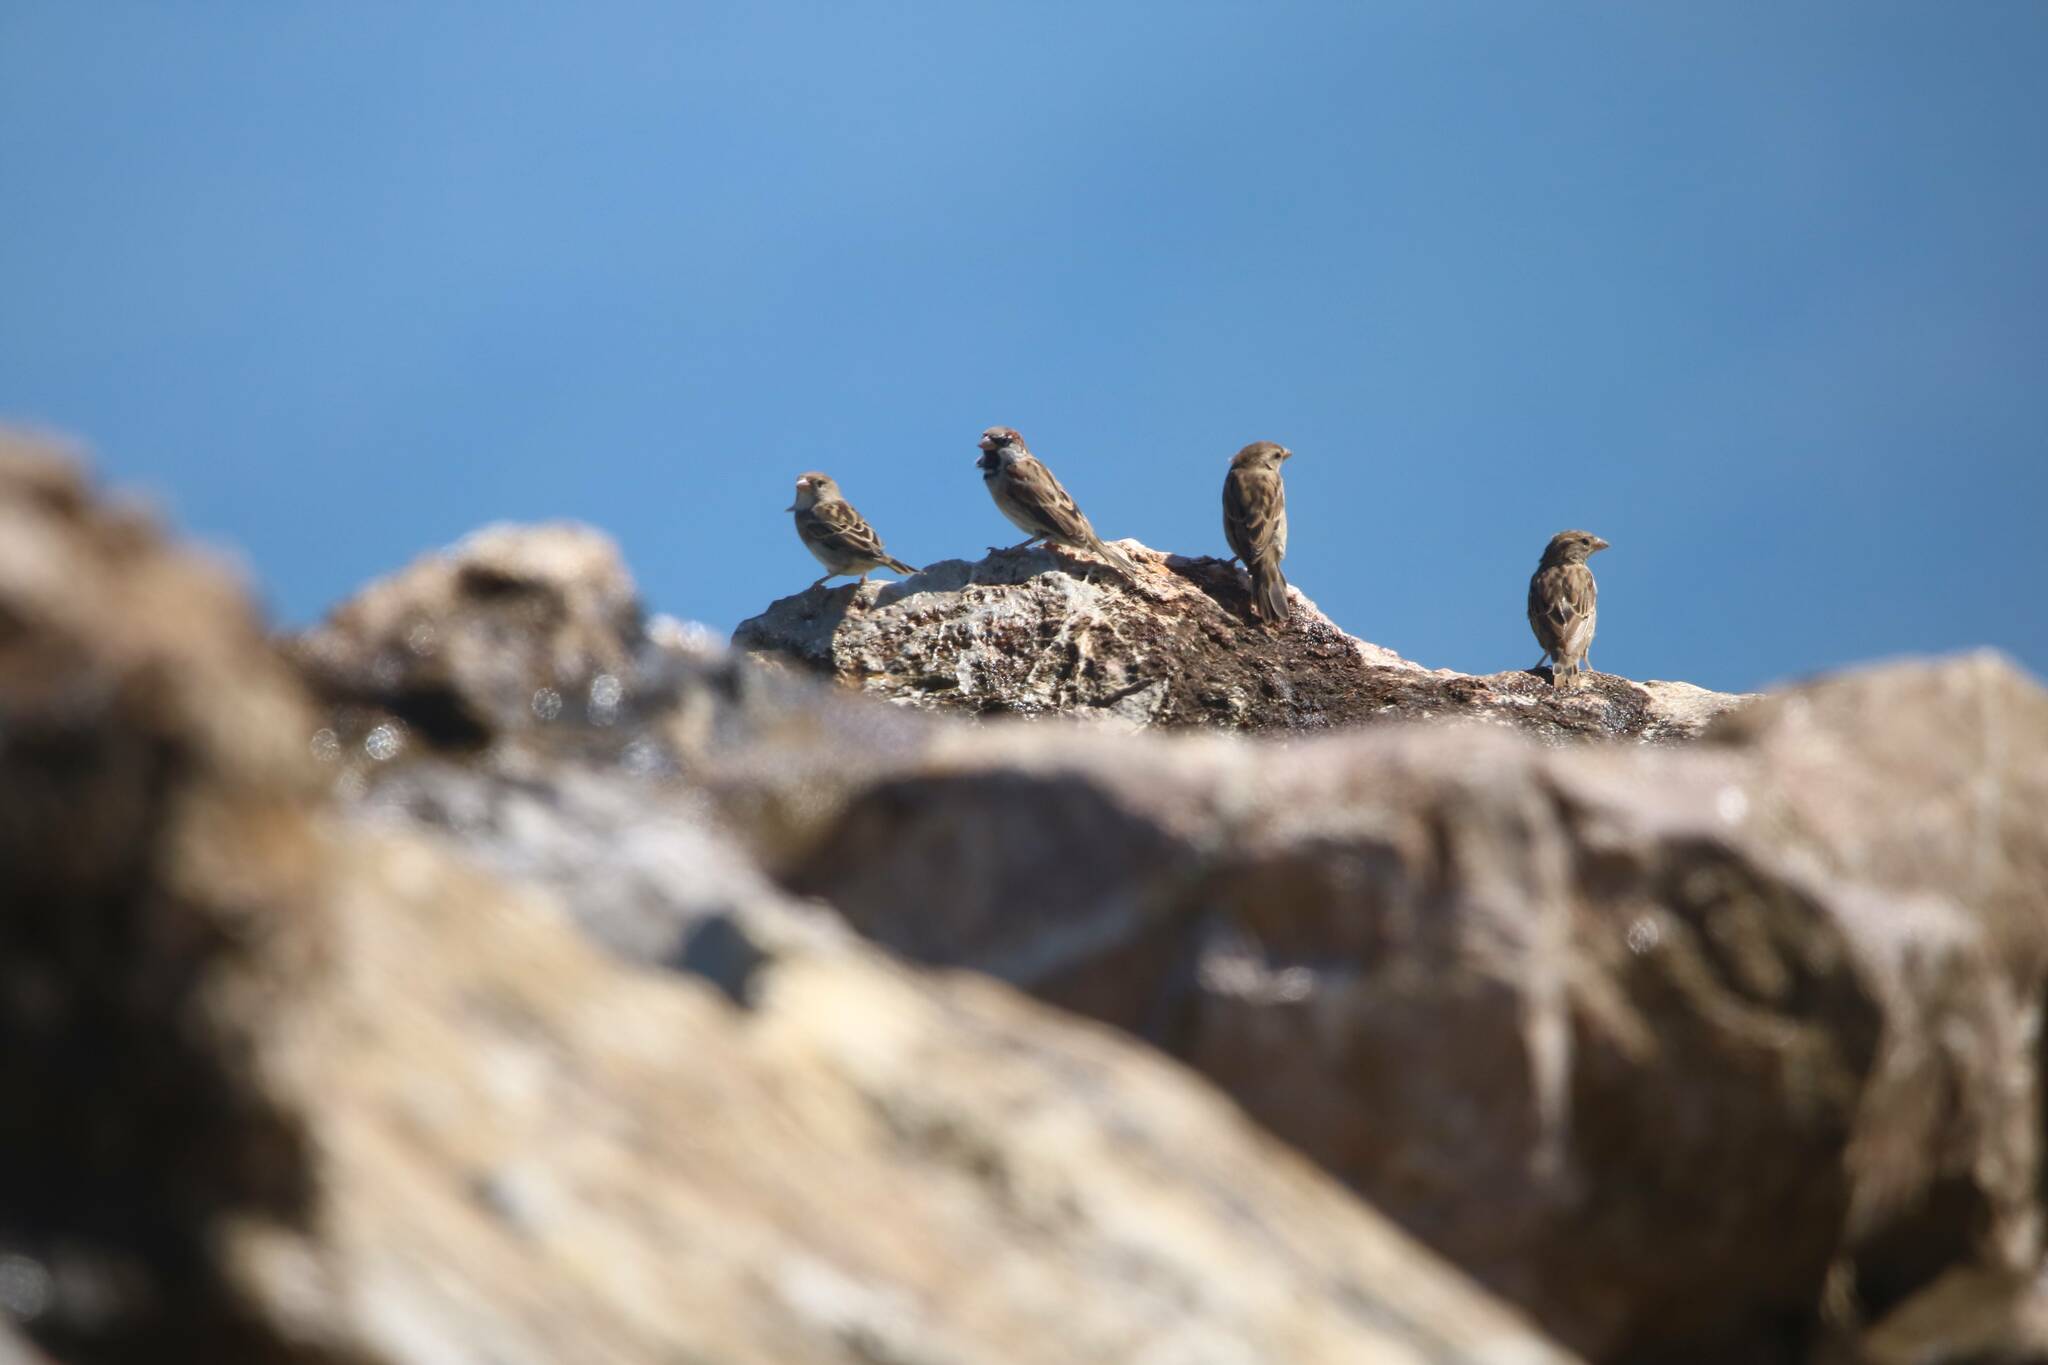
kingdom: Animalia
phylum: Chordata
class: Aves
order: Passeriformes
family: Passeridae
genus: Passer
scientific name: Passer domesticus
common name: House sparrow
